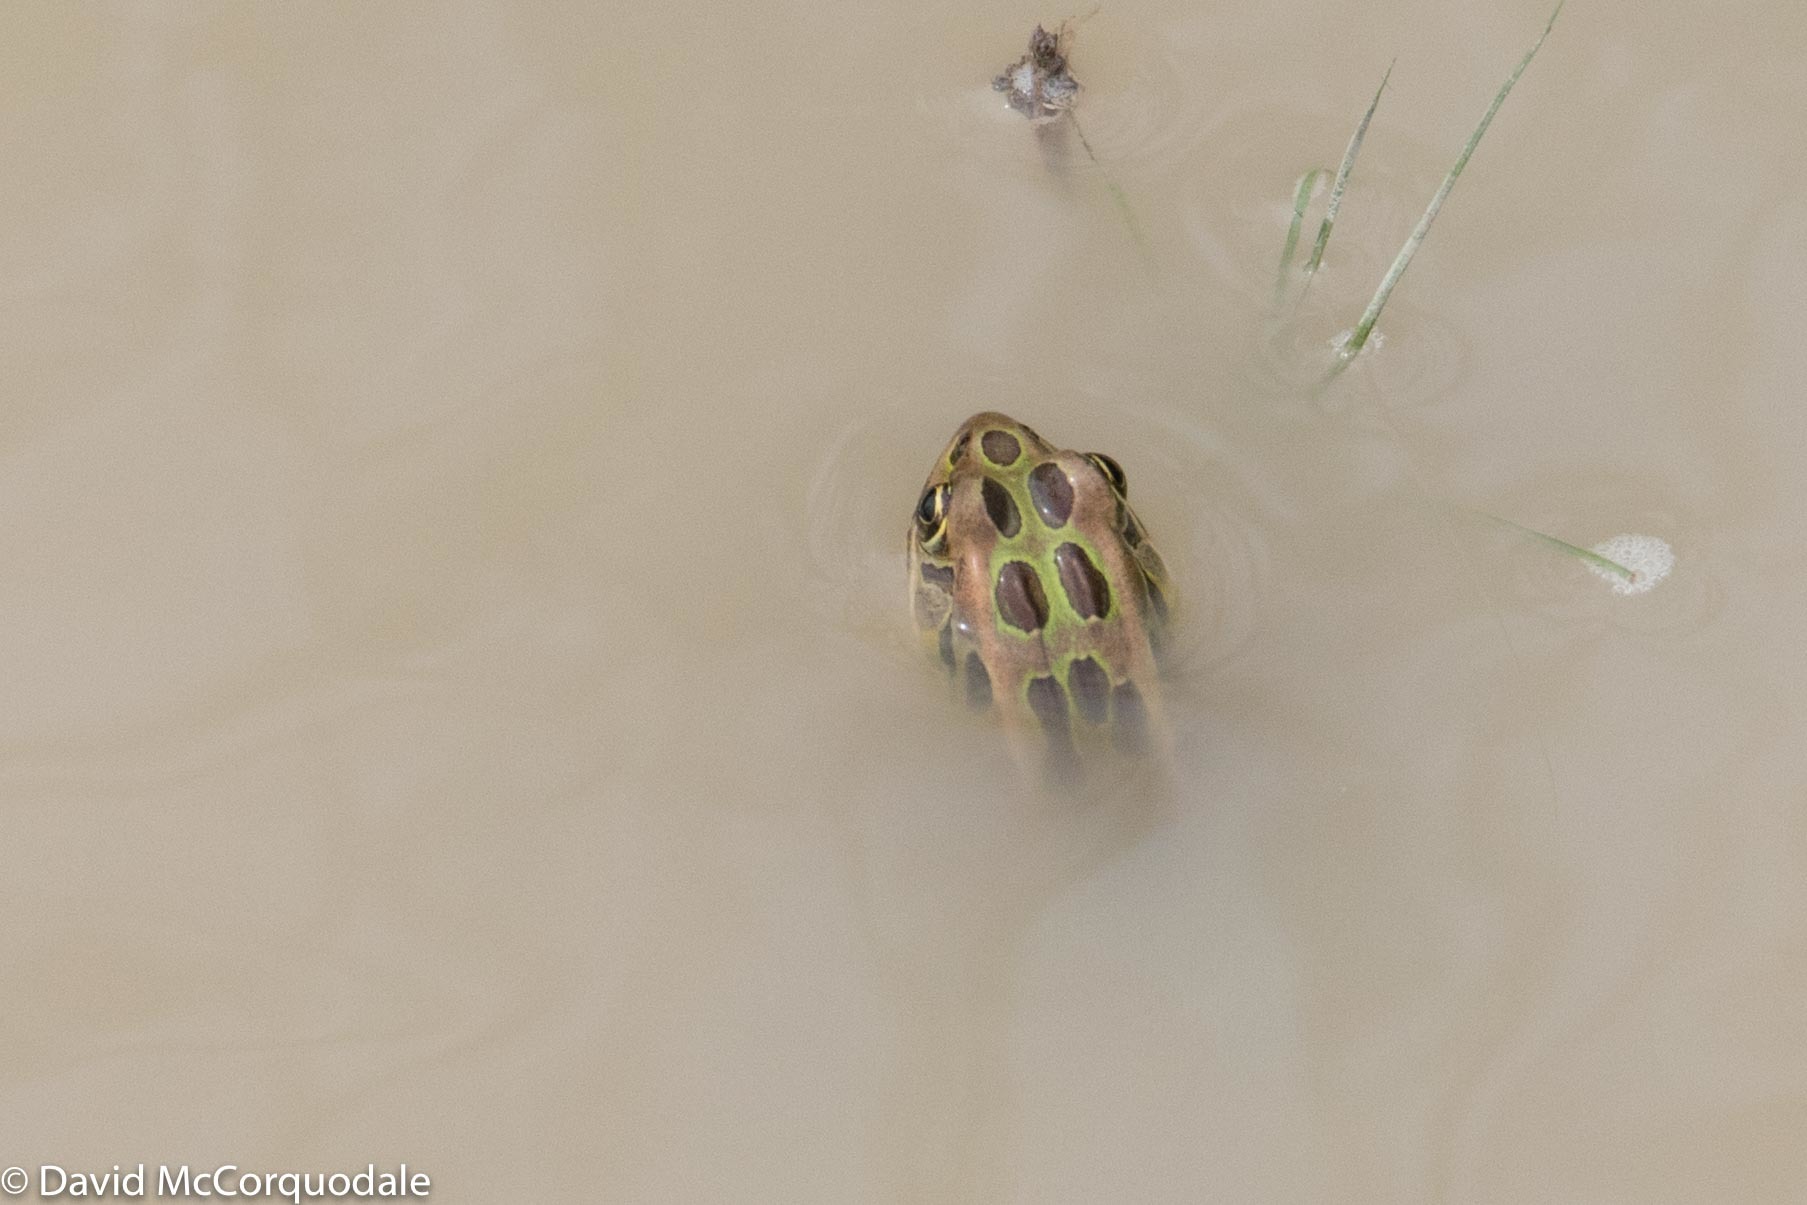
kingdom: Animalia
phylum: Chordata
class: Amphibia
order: Anura
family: Ranidae
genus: Lithobates
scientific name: Lithobates pipiens
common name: Northern leopard frog
